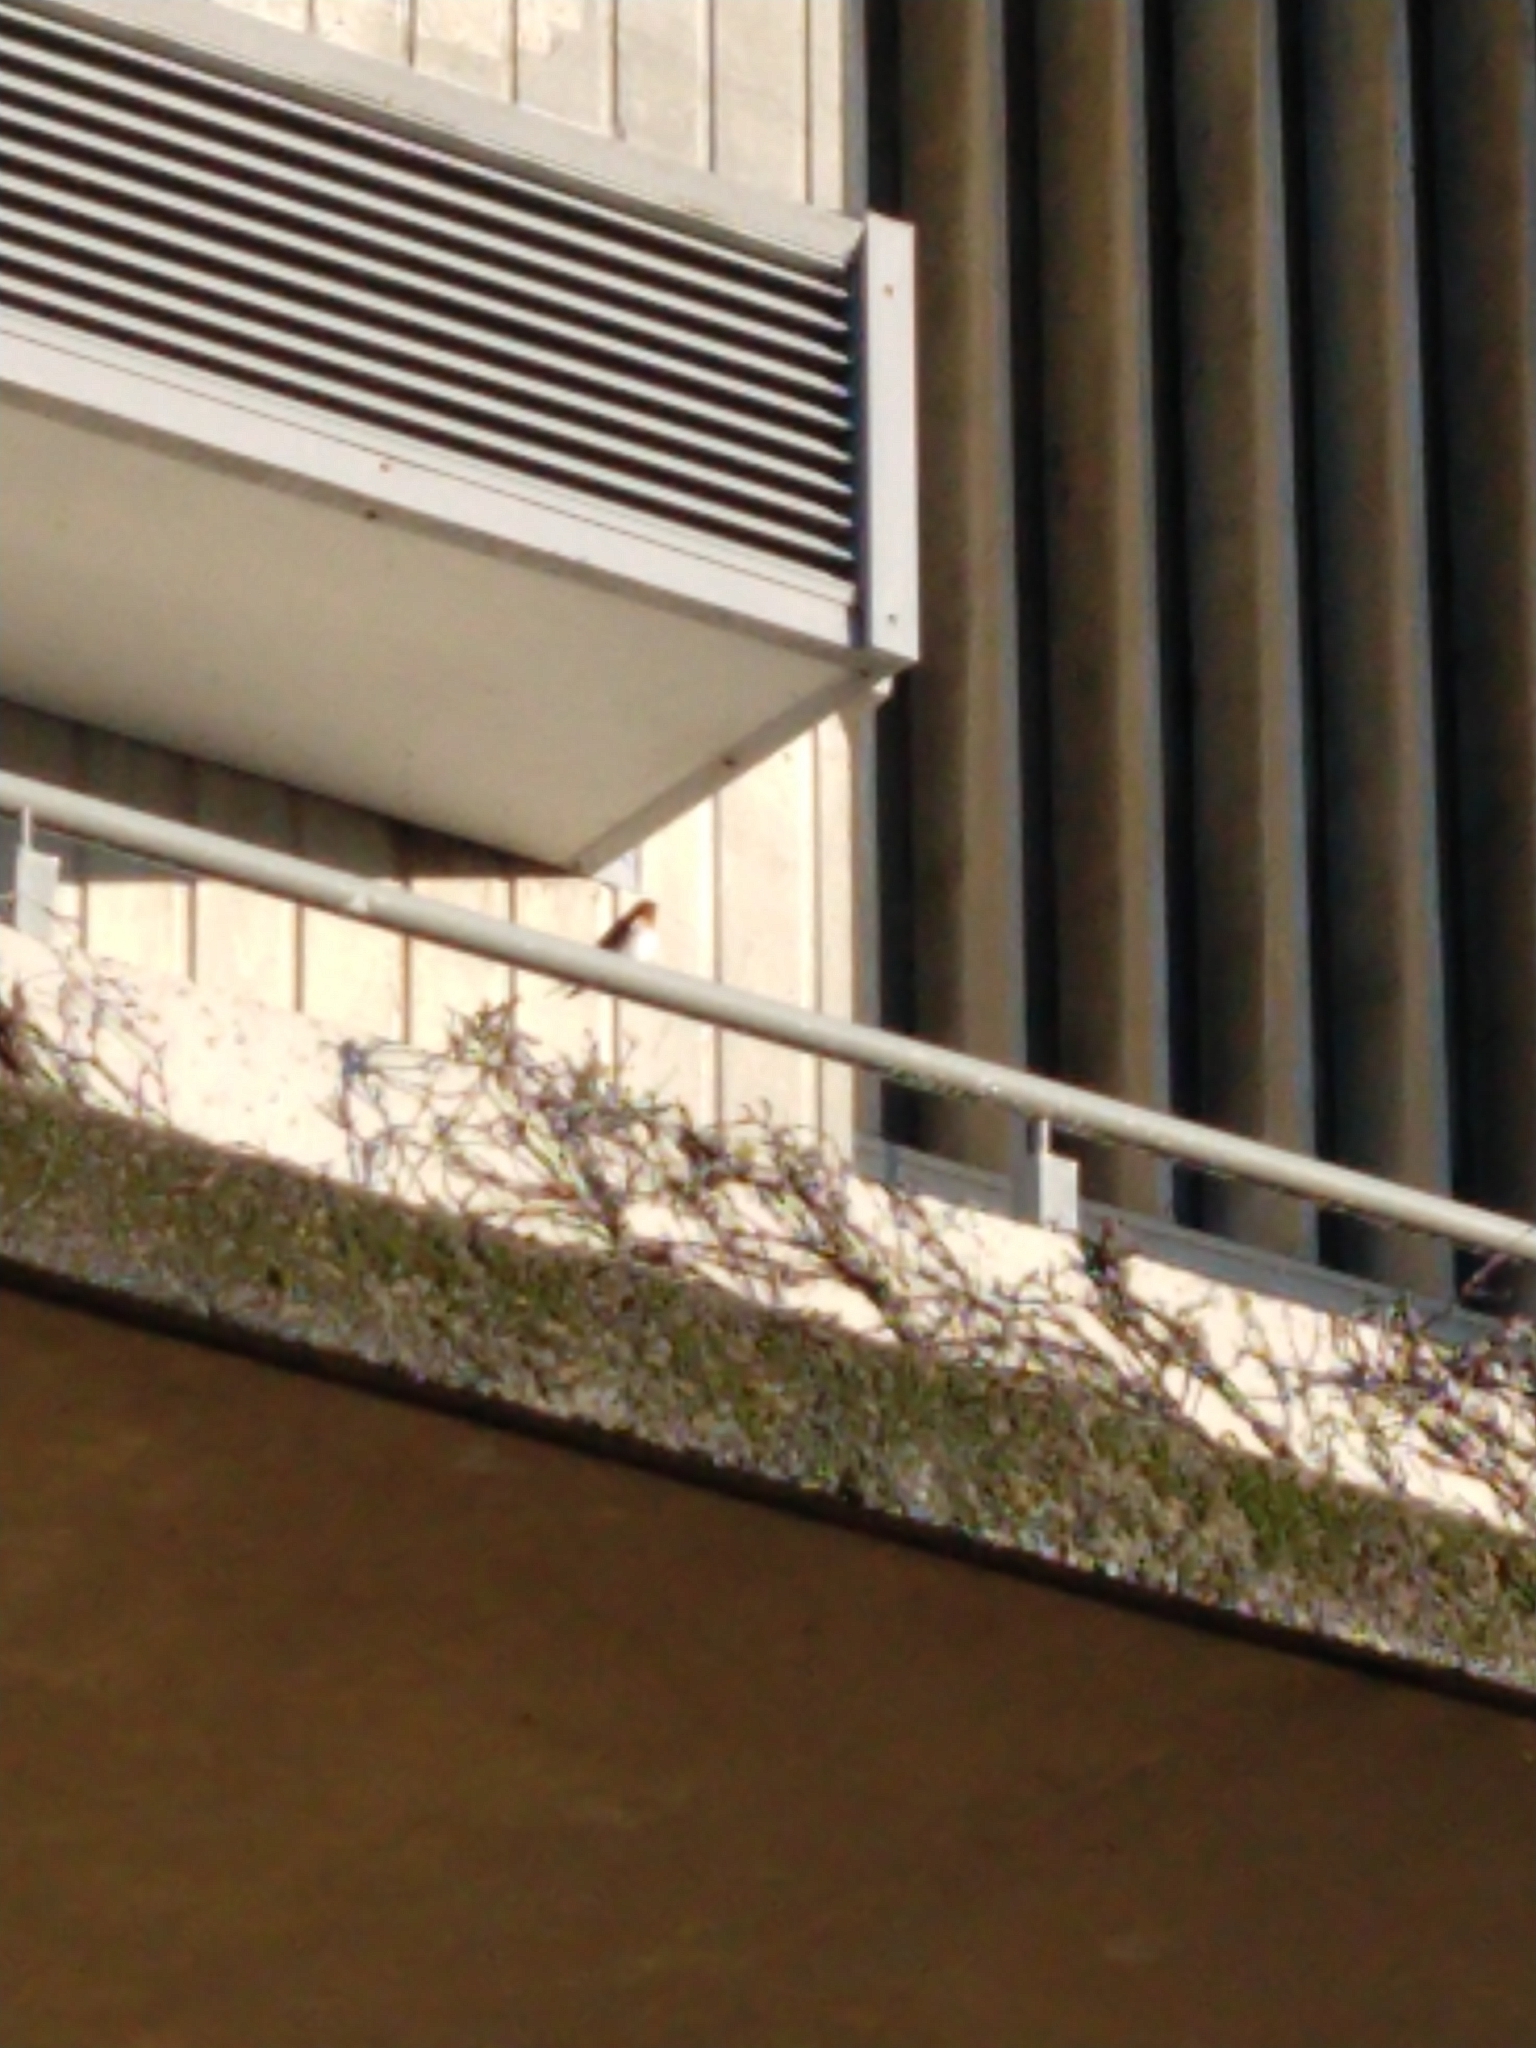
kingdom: Animalia
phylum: Chordata
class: Aves
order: Passeriformes
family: Hirundinidae
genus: Hirundo
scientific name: Hirundo neoxena
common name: Welcome swallow
